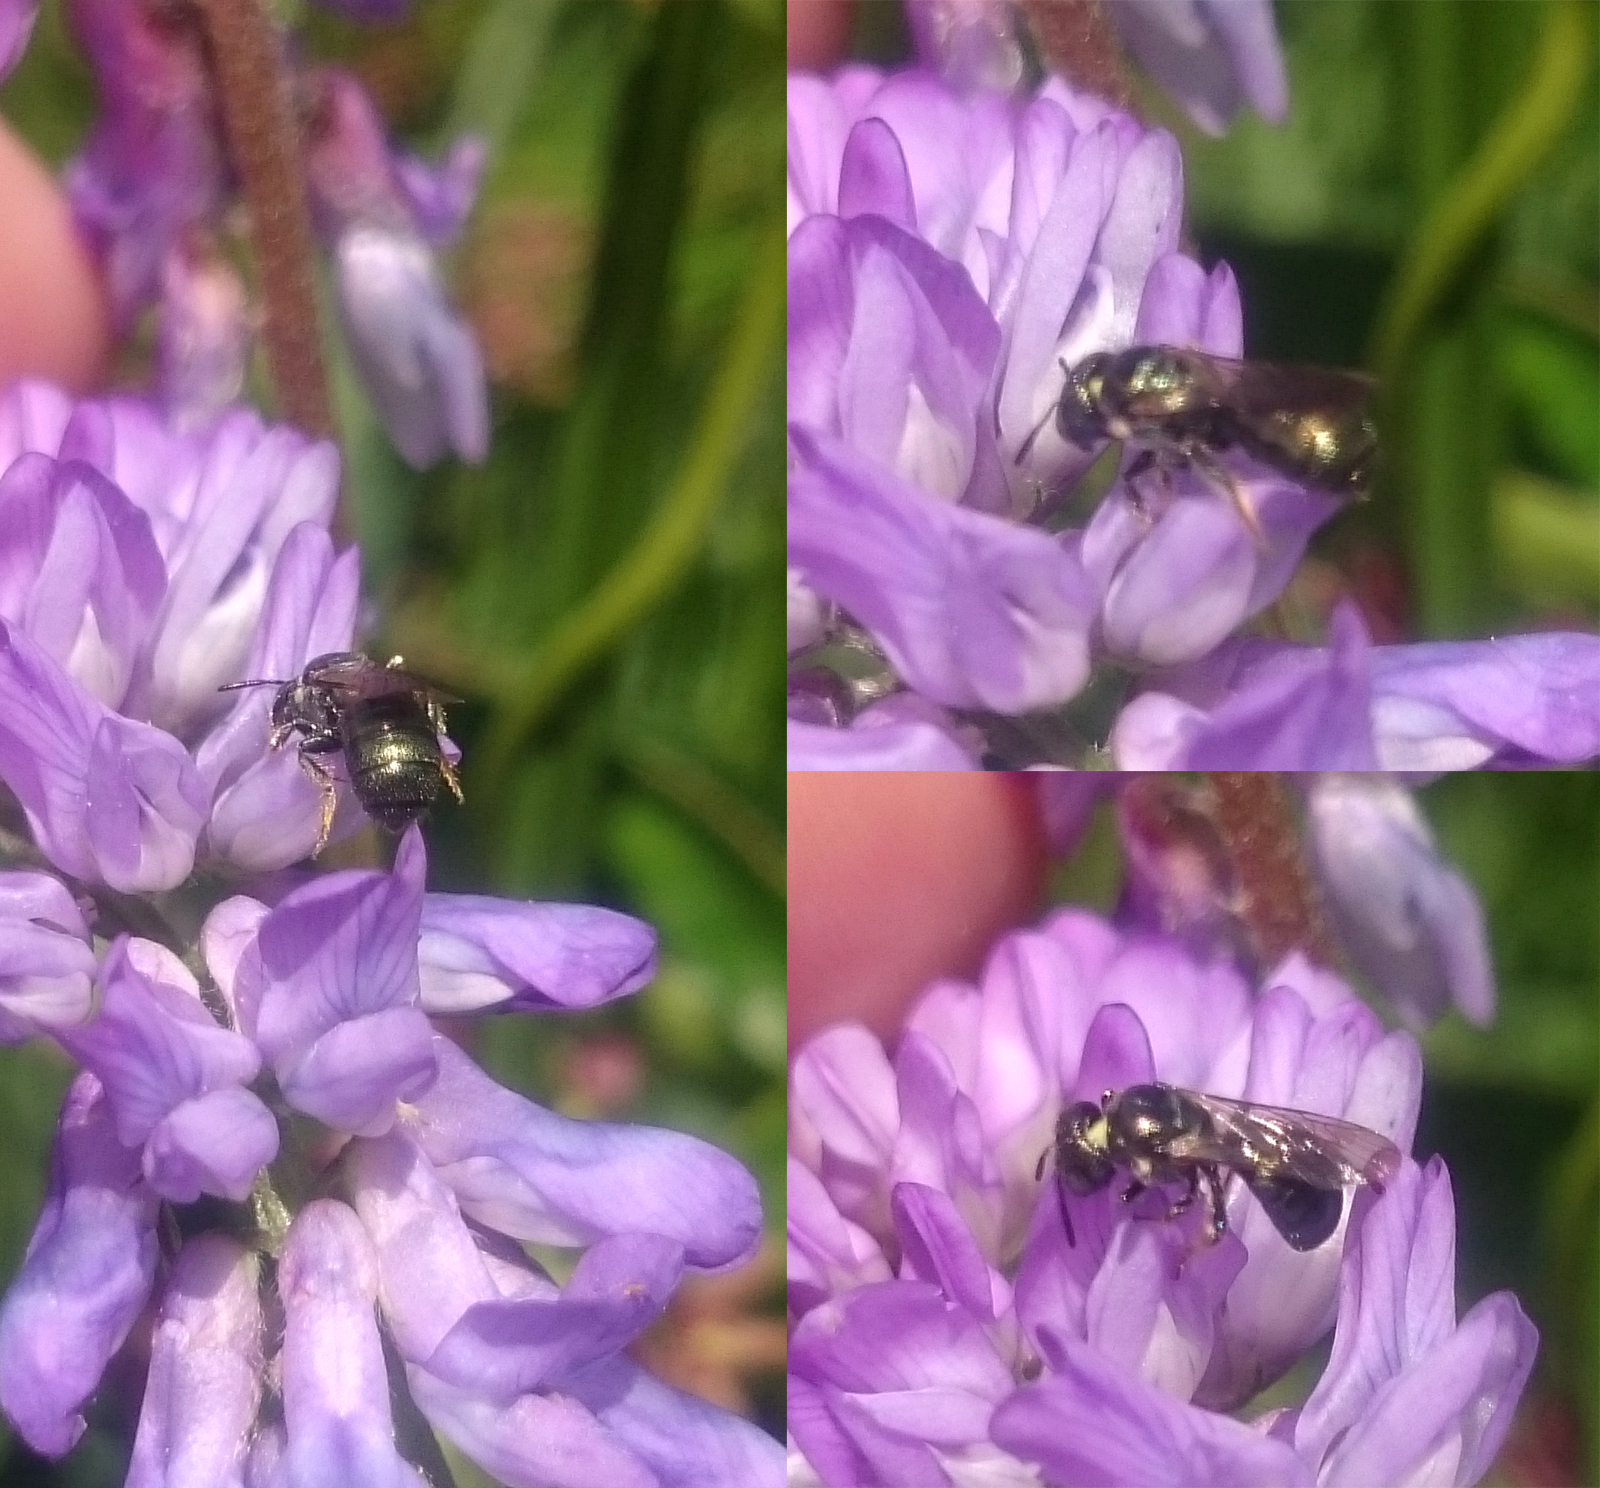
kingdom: Animalia
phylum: Arthropoda
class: Insecta
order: Hymenoptera
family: Apidae
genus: Zadontomerus
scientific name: Zadontomerus
